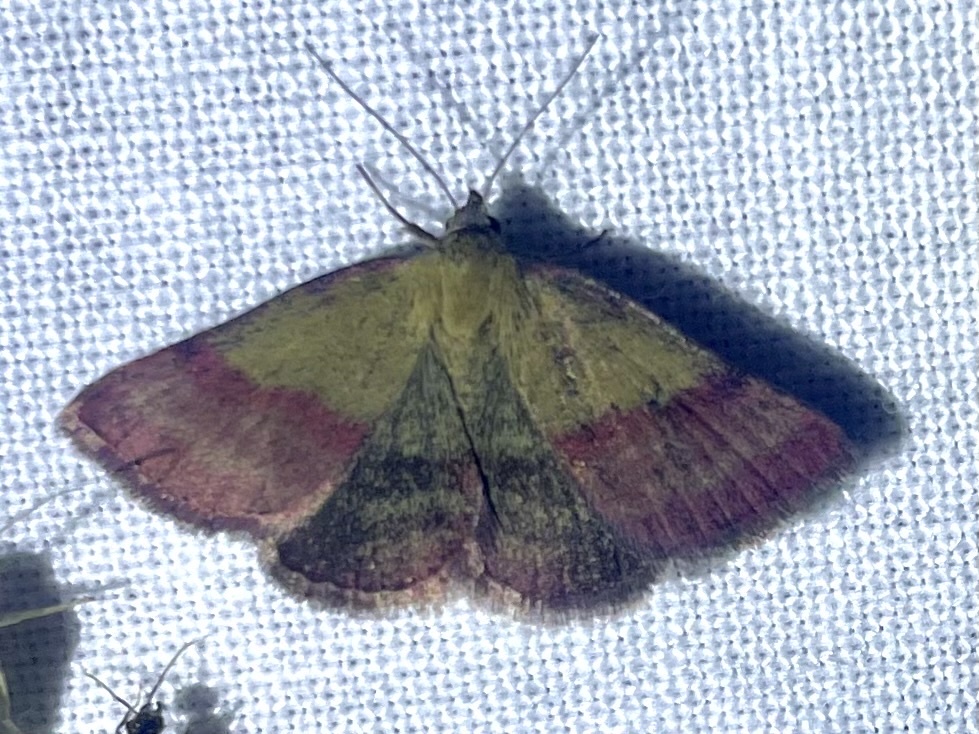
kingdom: Animalia
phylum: Arthropoda
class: Insecta
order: Lepidoptera
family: Erebidae
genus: Phytometra
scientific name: Phytometra viridaria
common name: Small purple-barred
